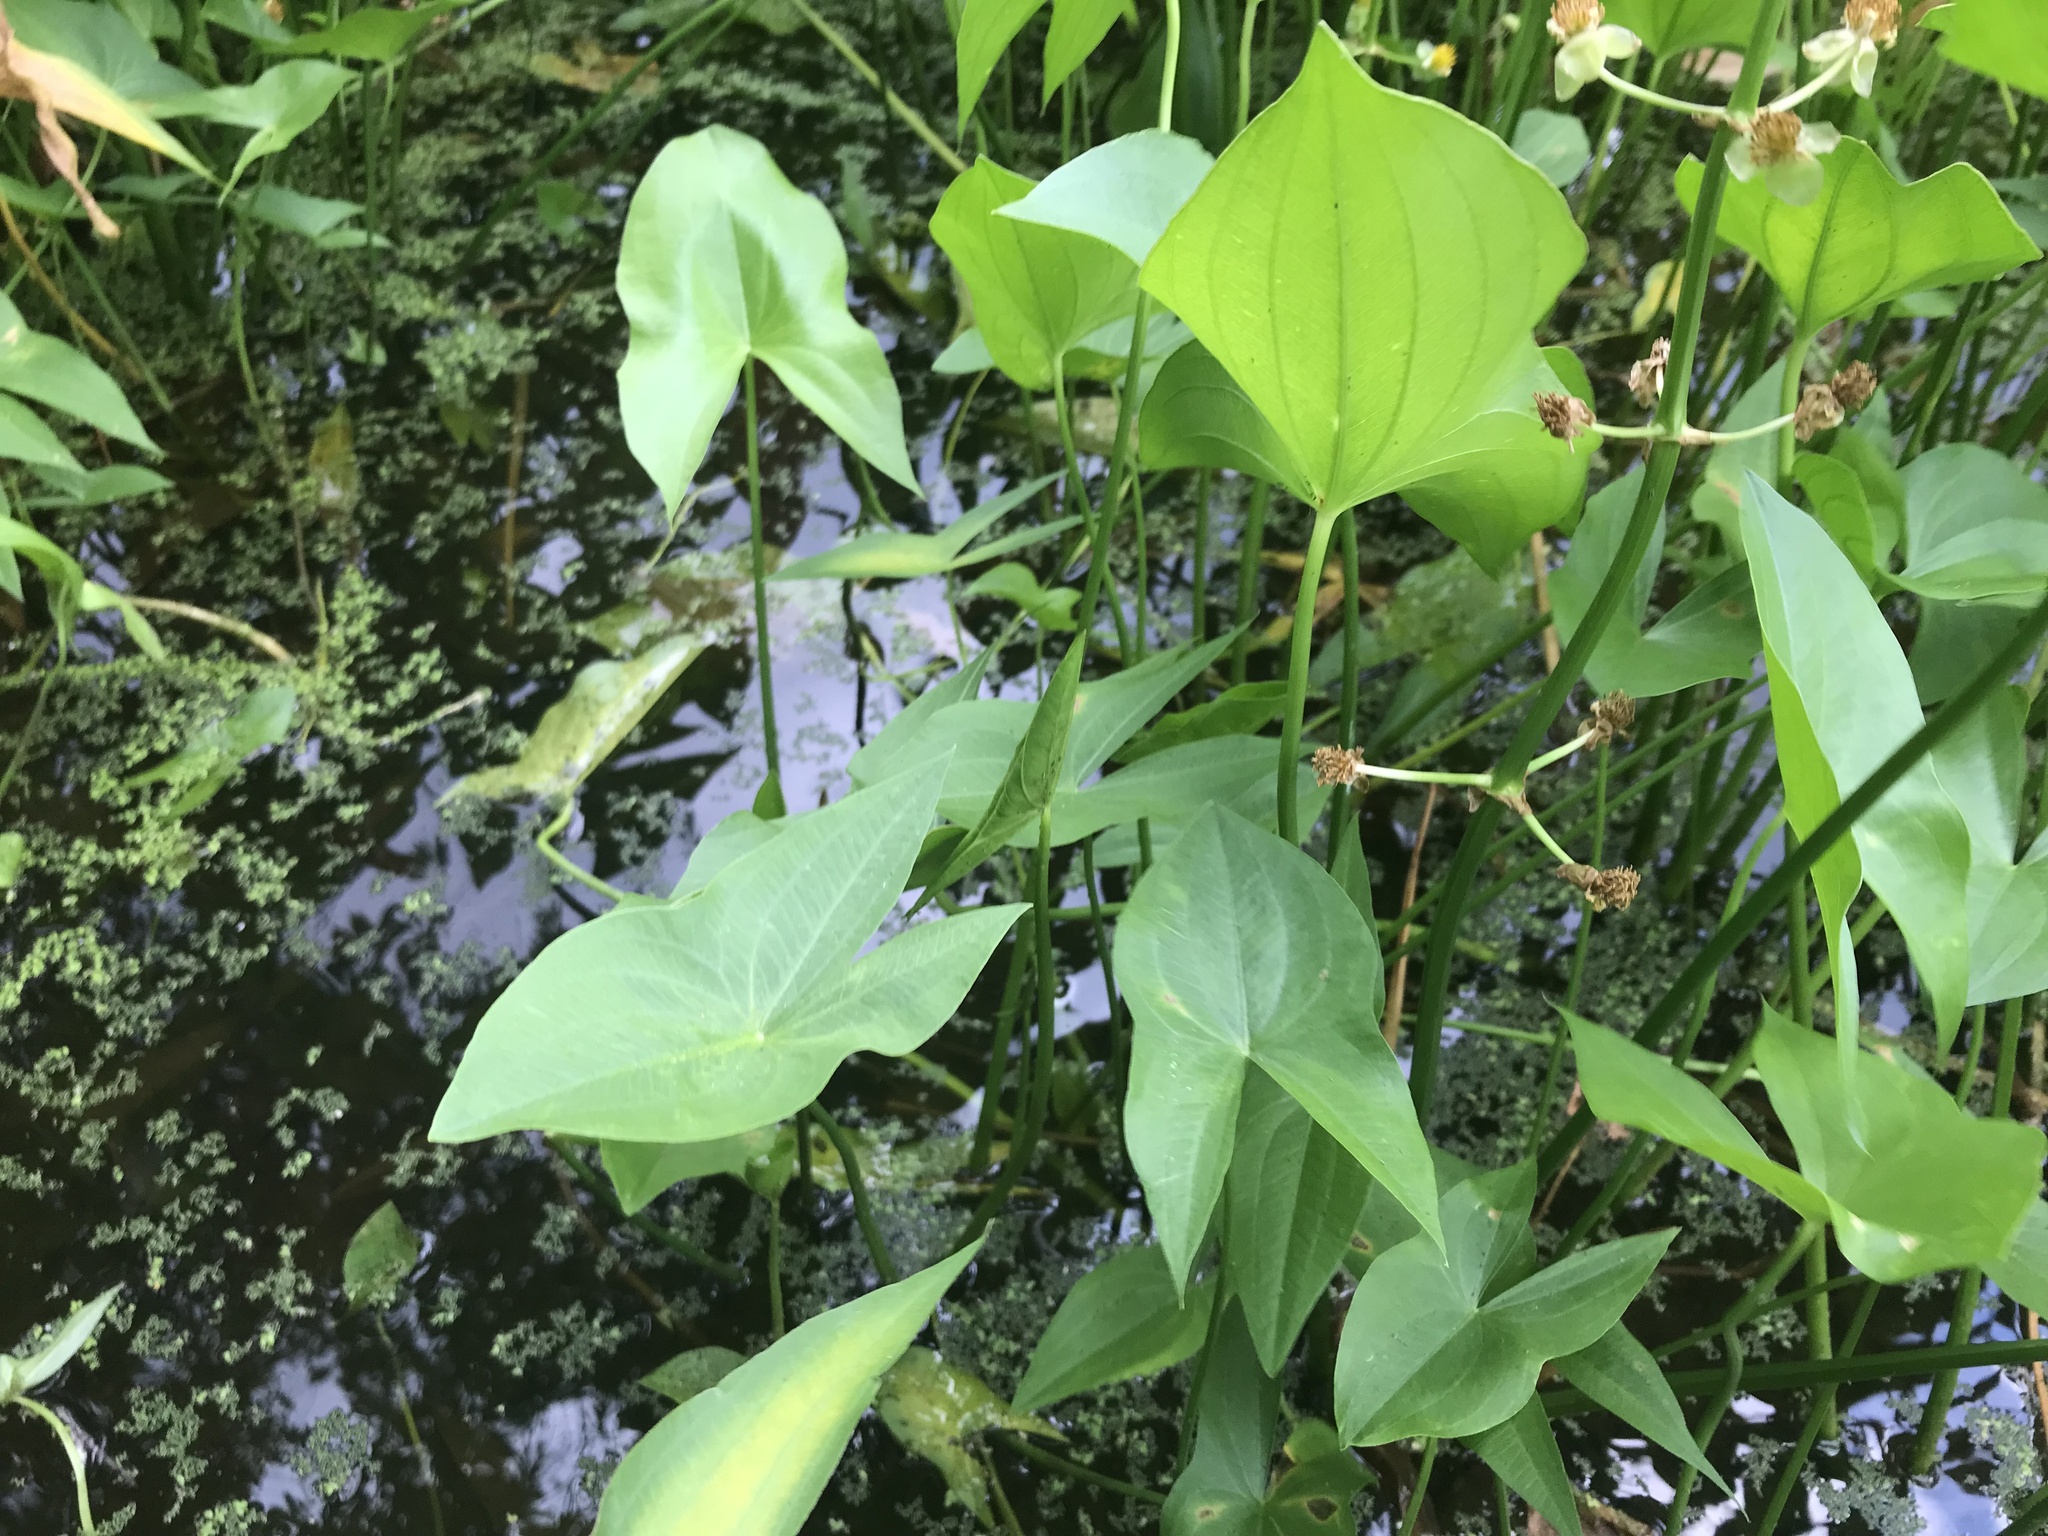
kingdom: Plantae
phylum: Tracheophyta
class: Liliopsida
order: Alismatales
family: Alismataceae
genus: Sagittaria
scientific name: Sagittaria latifolia
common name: Duck-potato
